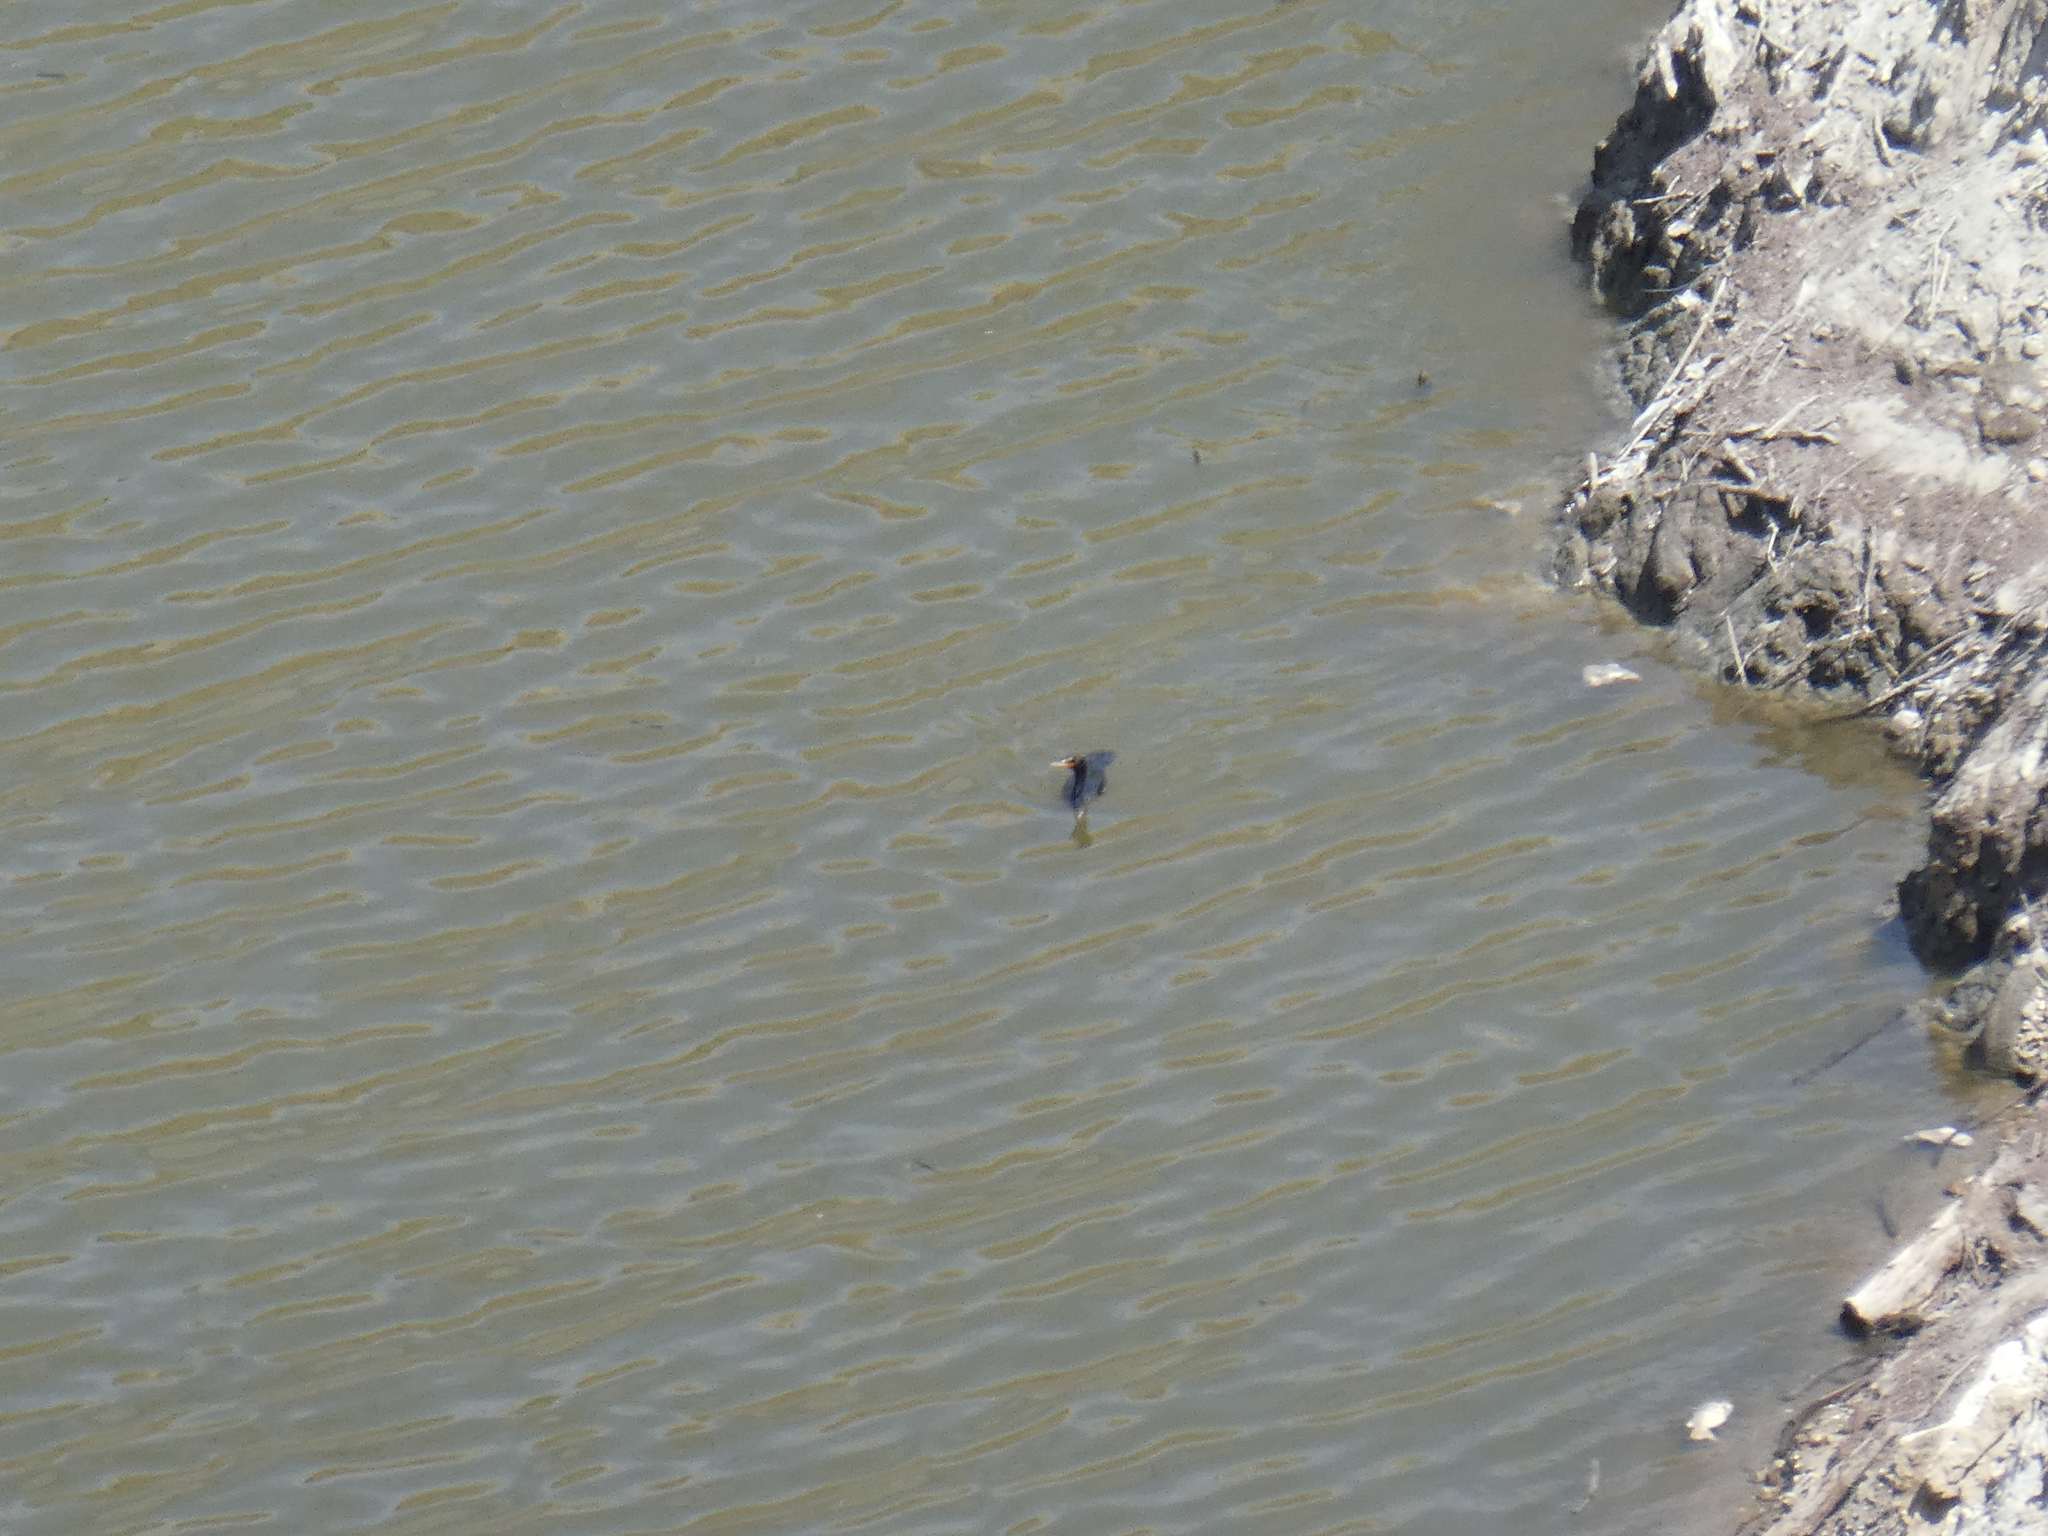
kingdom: Animalia
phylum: Chordata
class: Aves
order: Suliformes
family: Phalacrocoracidae
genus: Phalacrocorax
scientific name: Phalacrocorax auritus
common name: Double-crested cormorant
